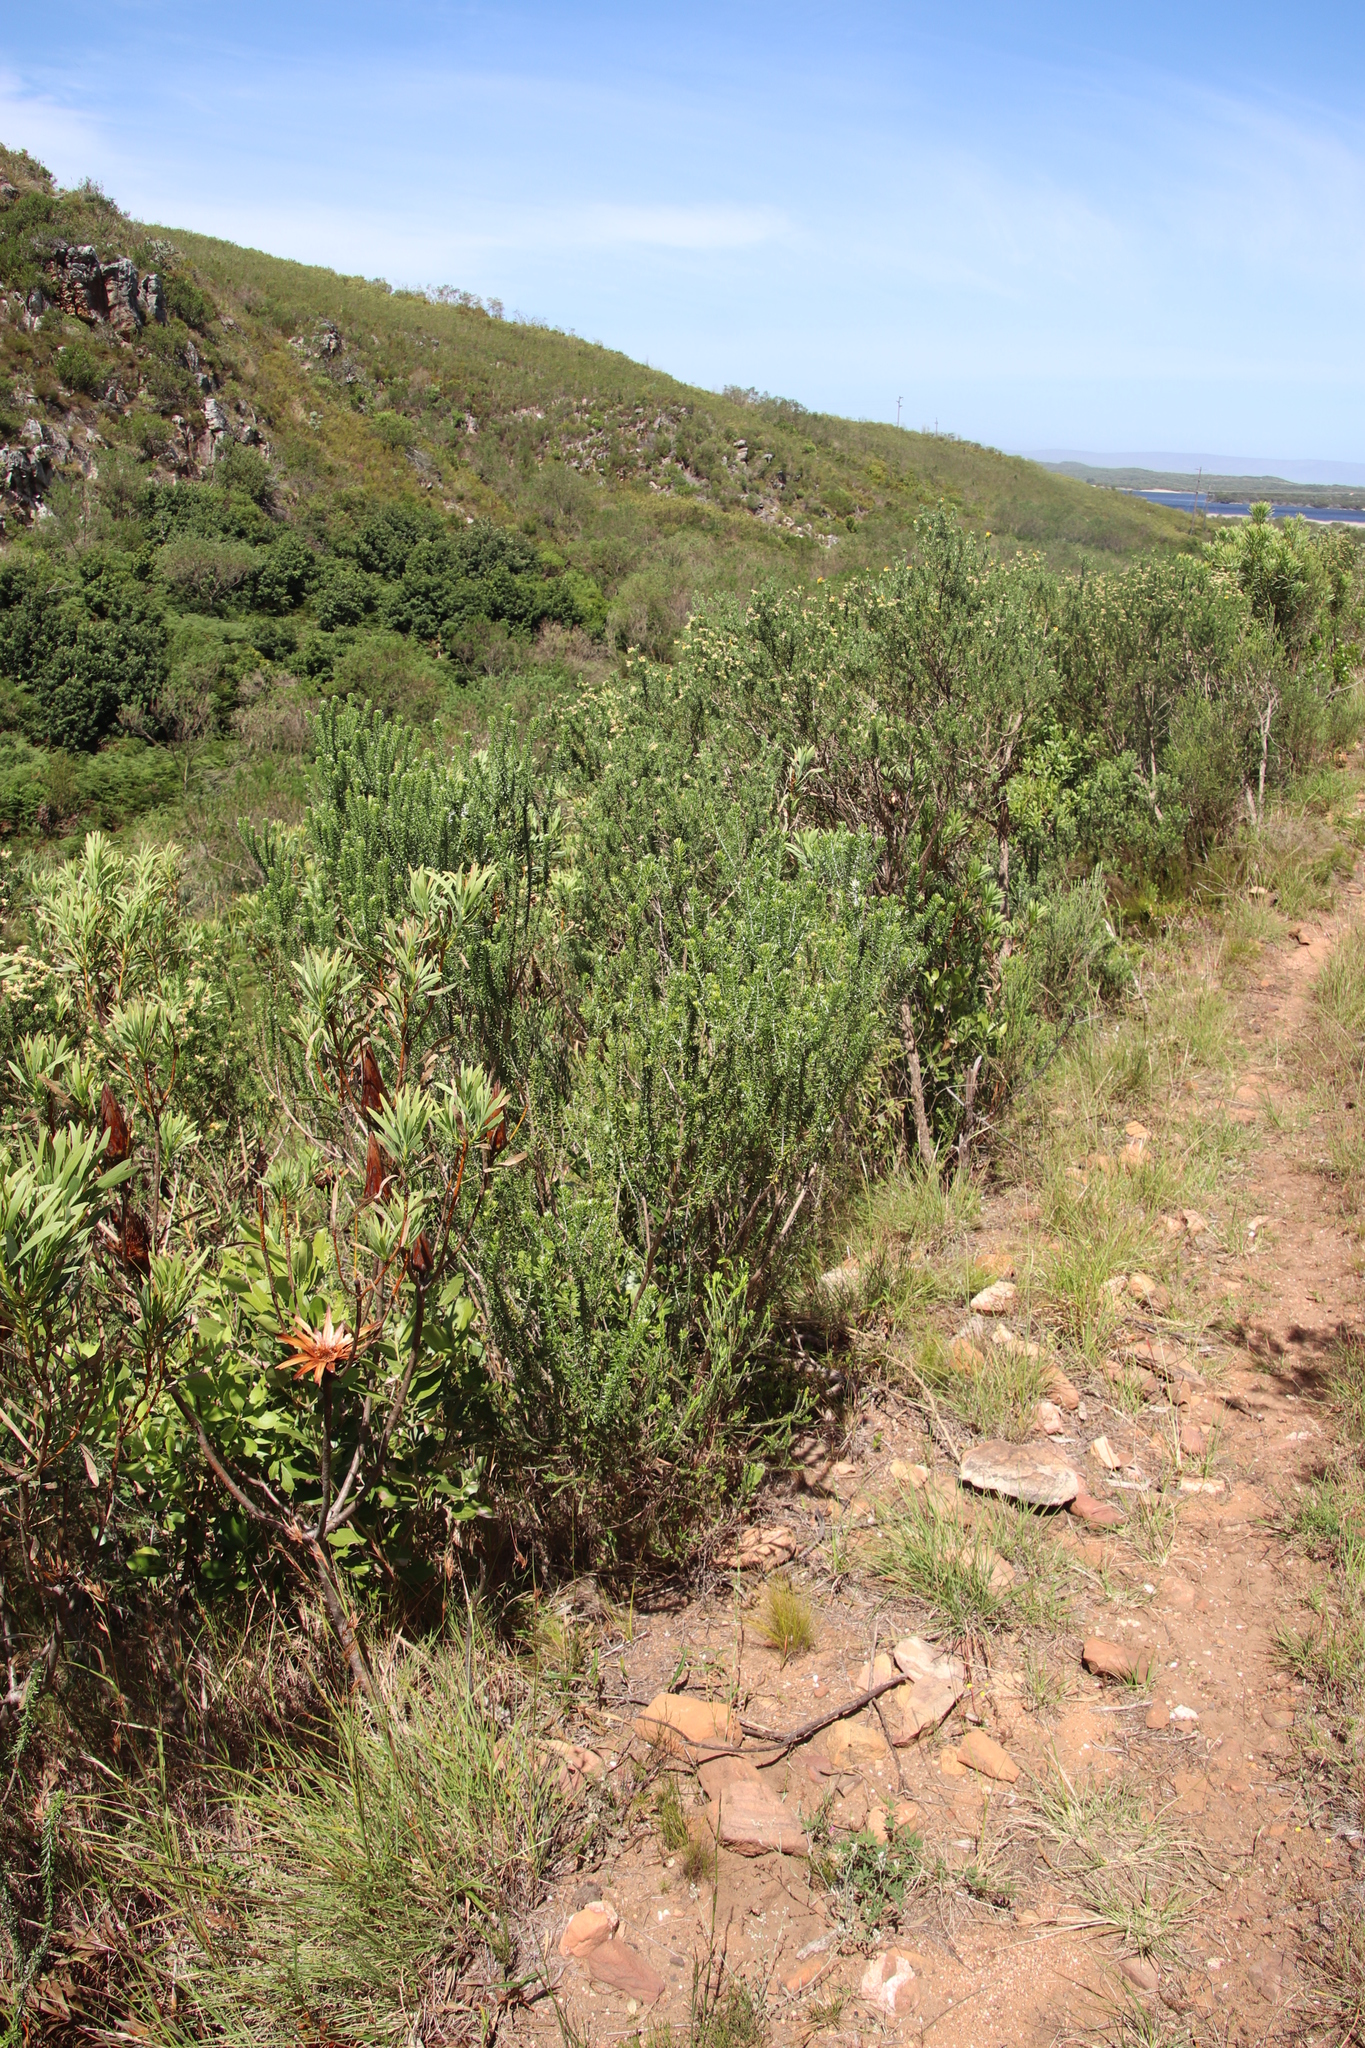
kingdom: Plantae
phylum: Tracheophyta
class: Magnoliopsida
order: Asterales
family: Asteraceae
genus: Metalasia
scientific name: Metalasia densa
